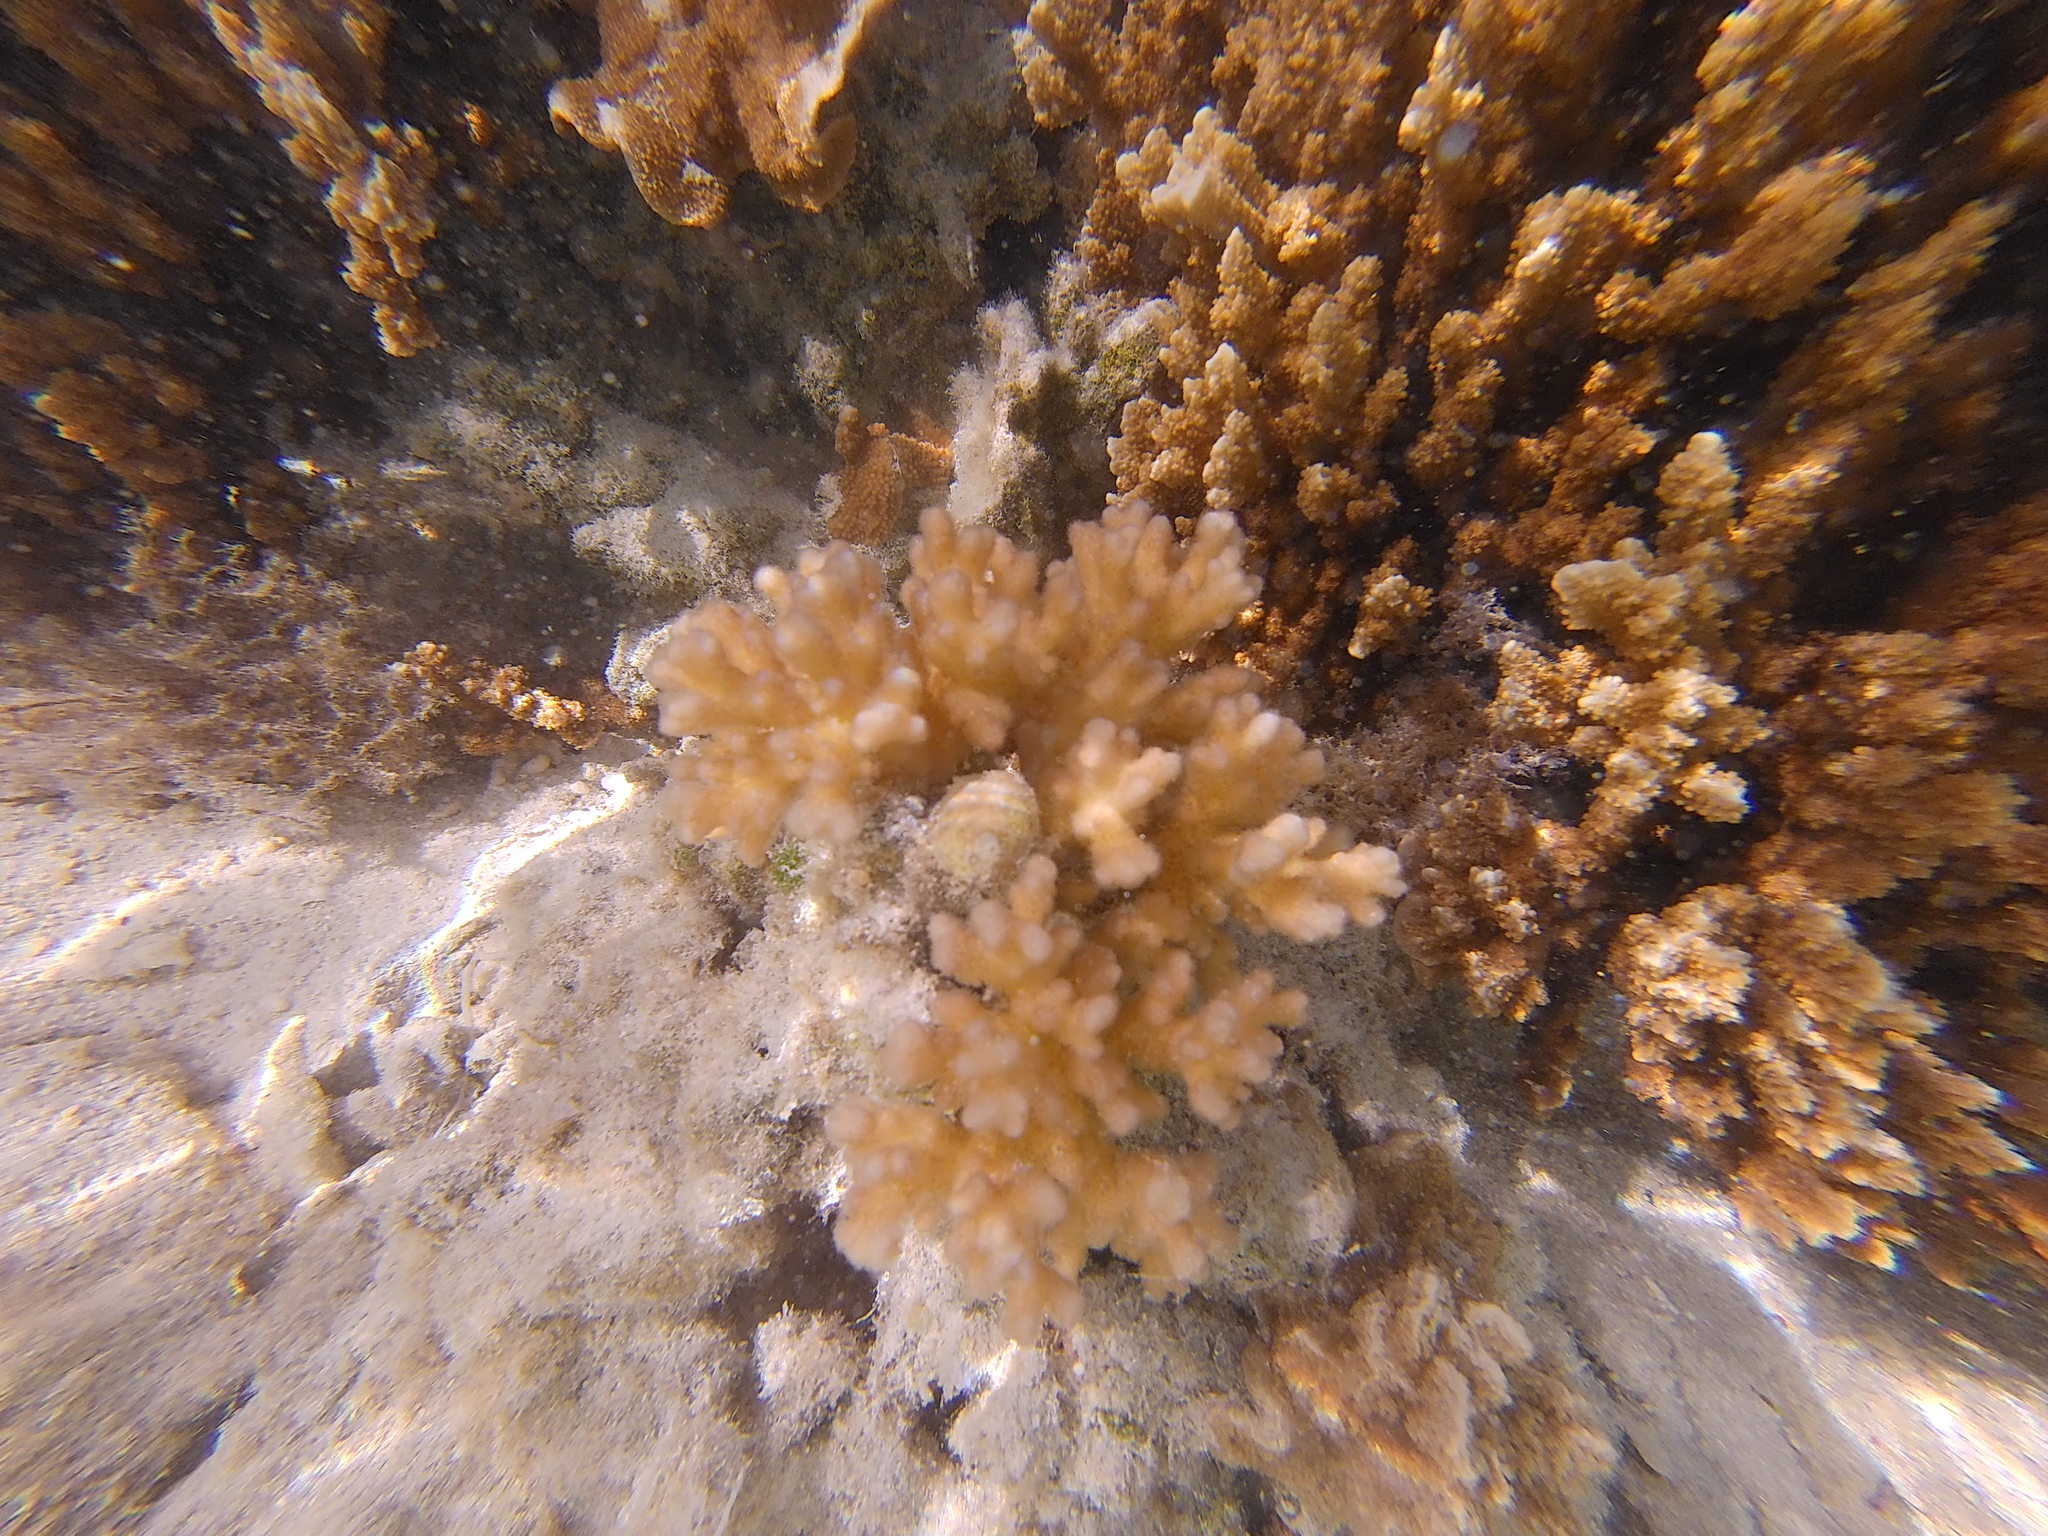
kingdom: Animalia
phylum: Cnidaria
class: Anthozoa
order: Scleractinia
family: Pocilloporidae
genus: Pocillopora
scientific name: Pocillopora damicornis
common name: Cauliflower coral
